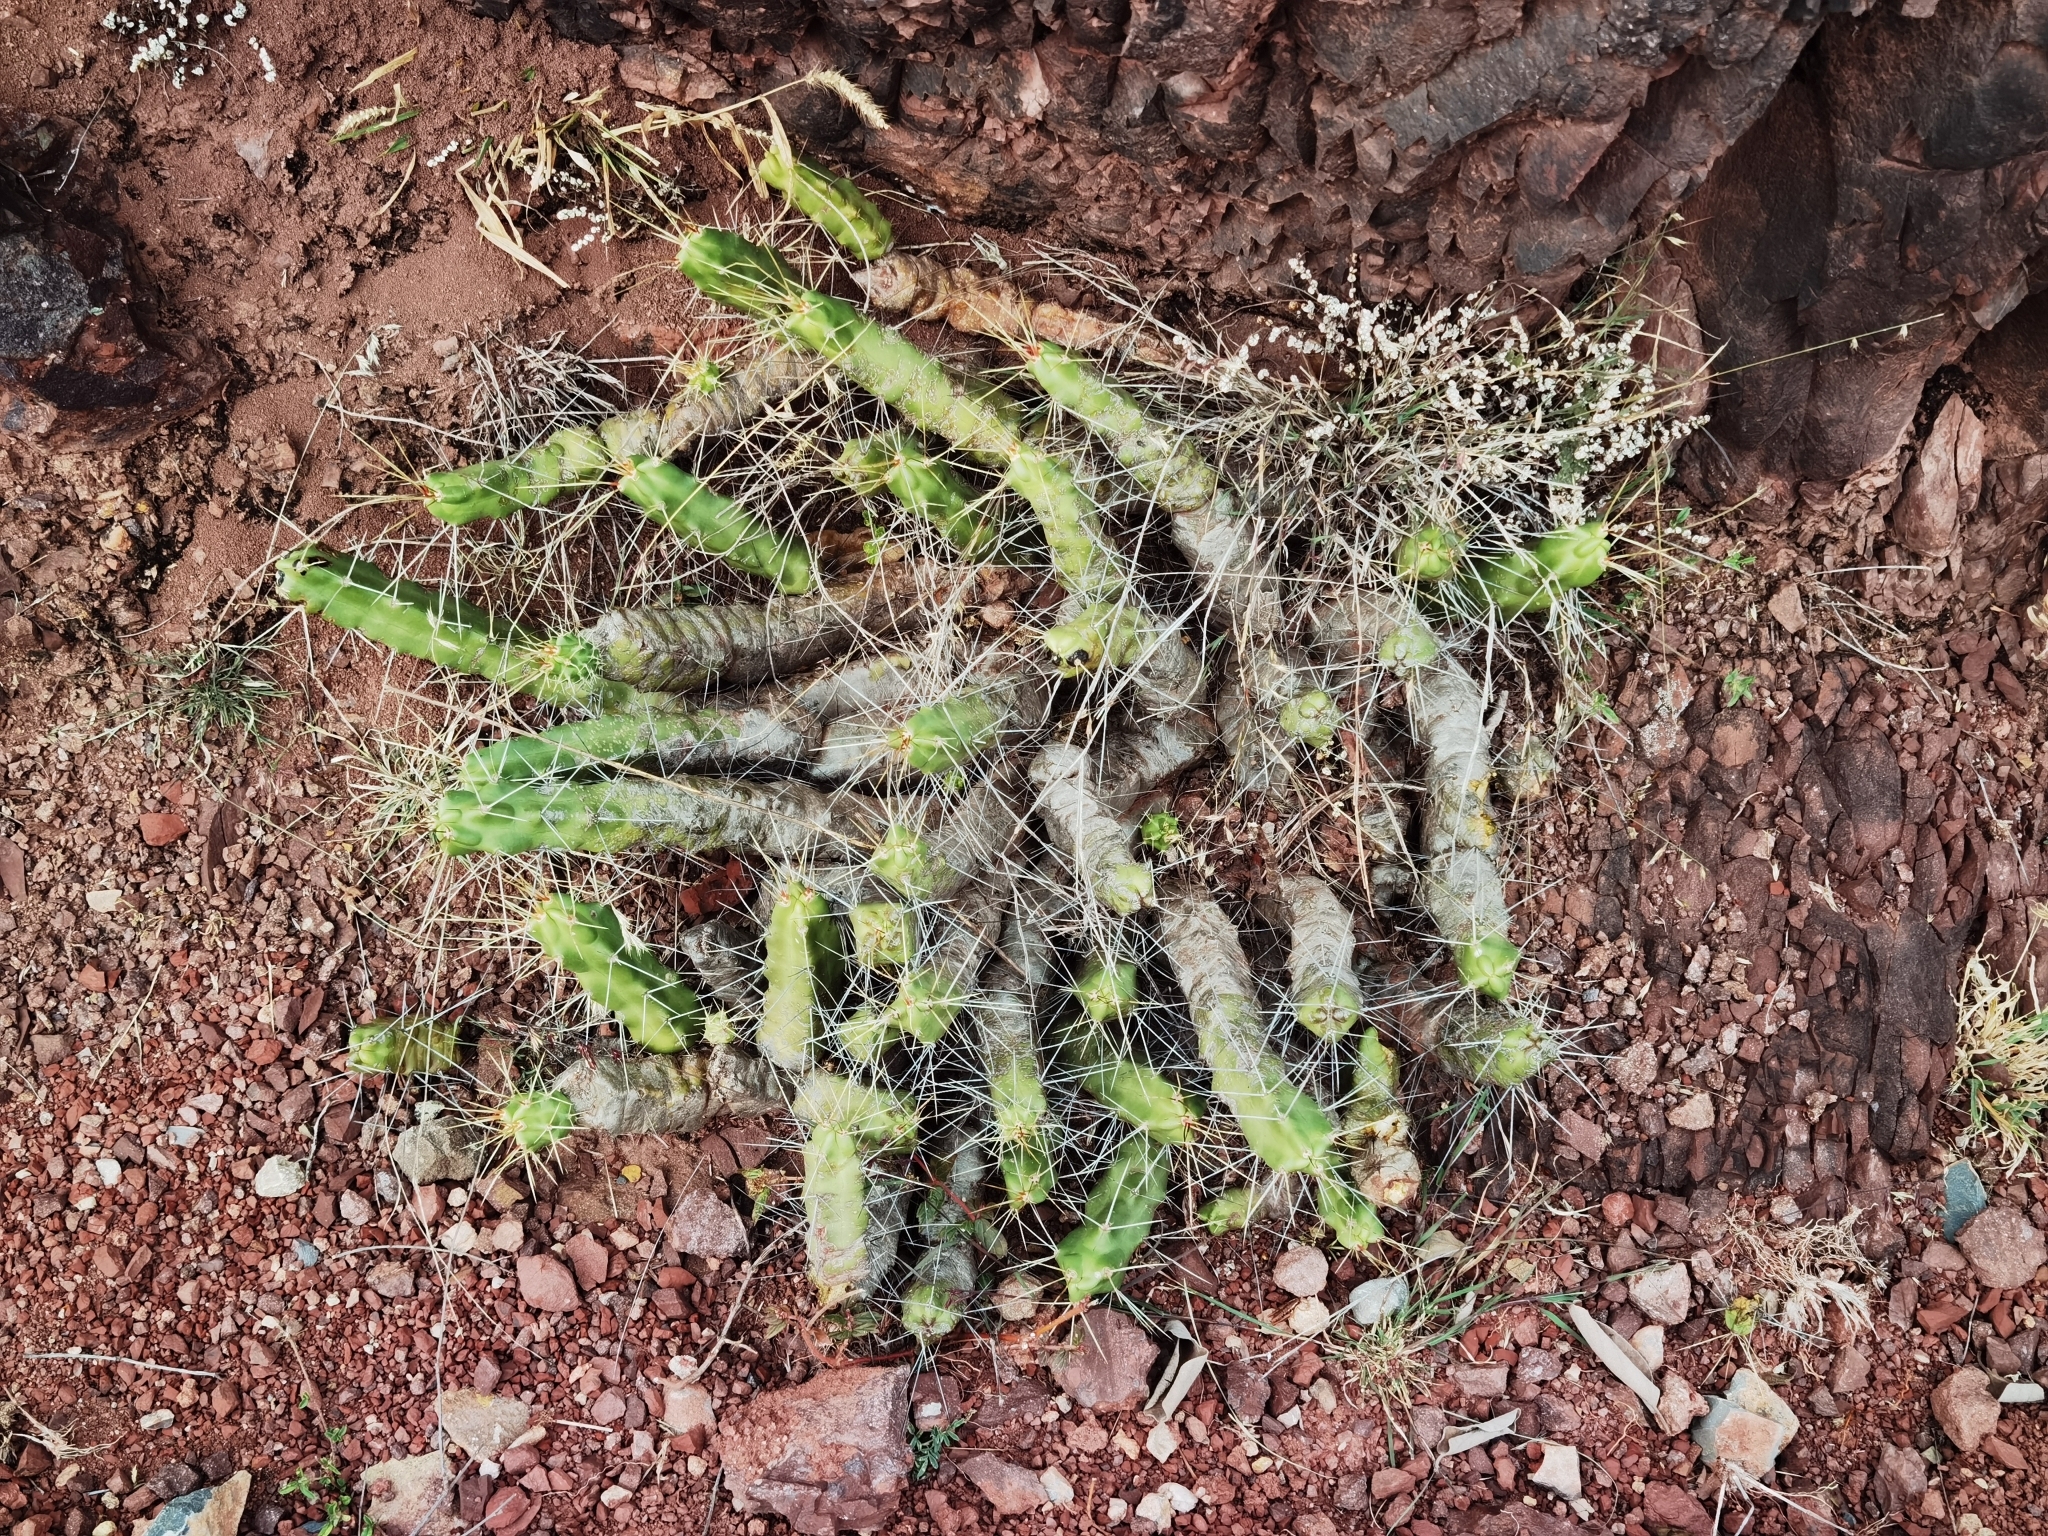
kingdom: Plantae
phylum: Tracheophyta
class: Magnoliopsida
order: Caryophyllales
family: Cactaceae
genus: Echinocereus
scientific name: Echinocereus pentalophus
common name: Ladyfinger cactus
